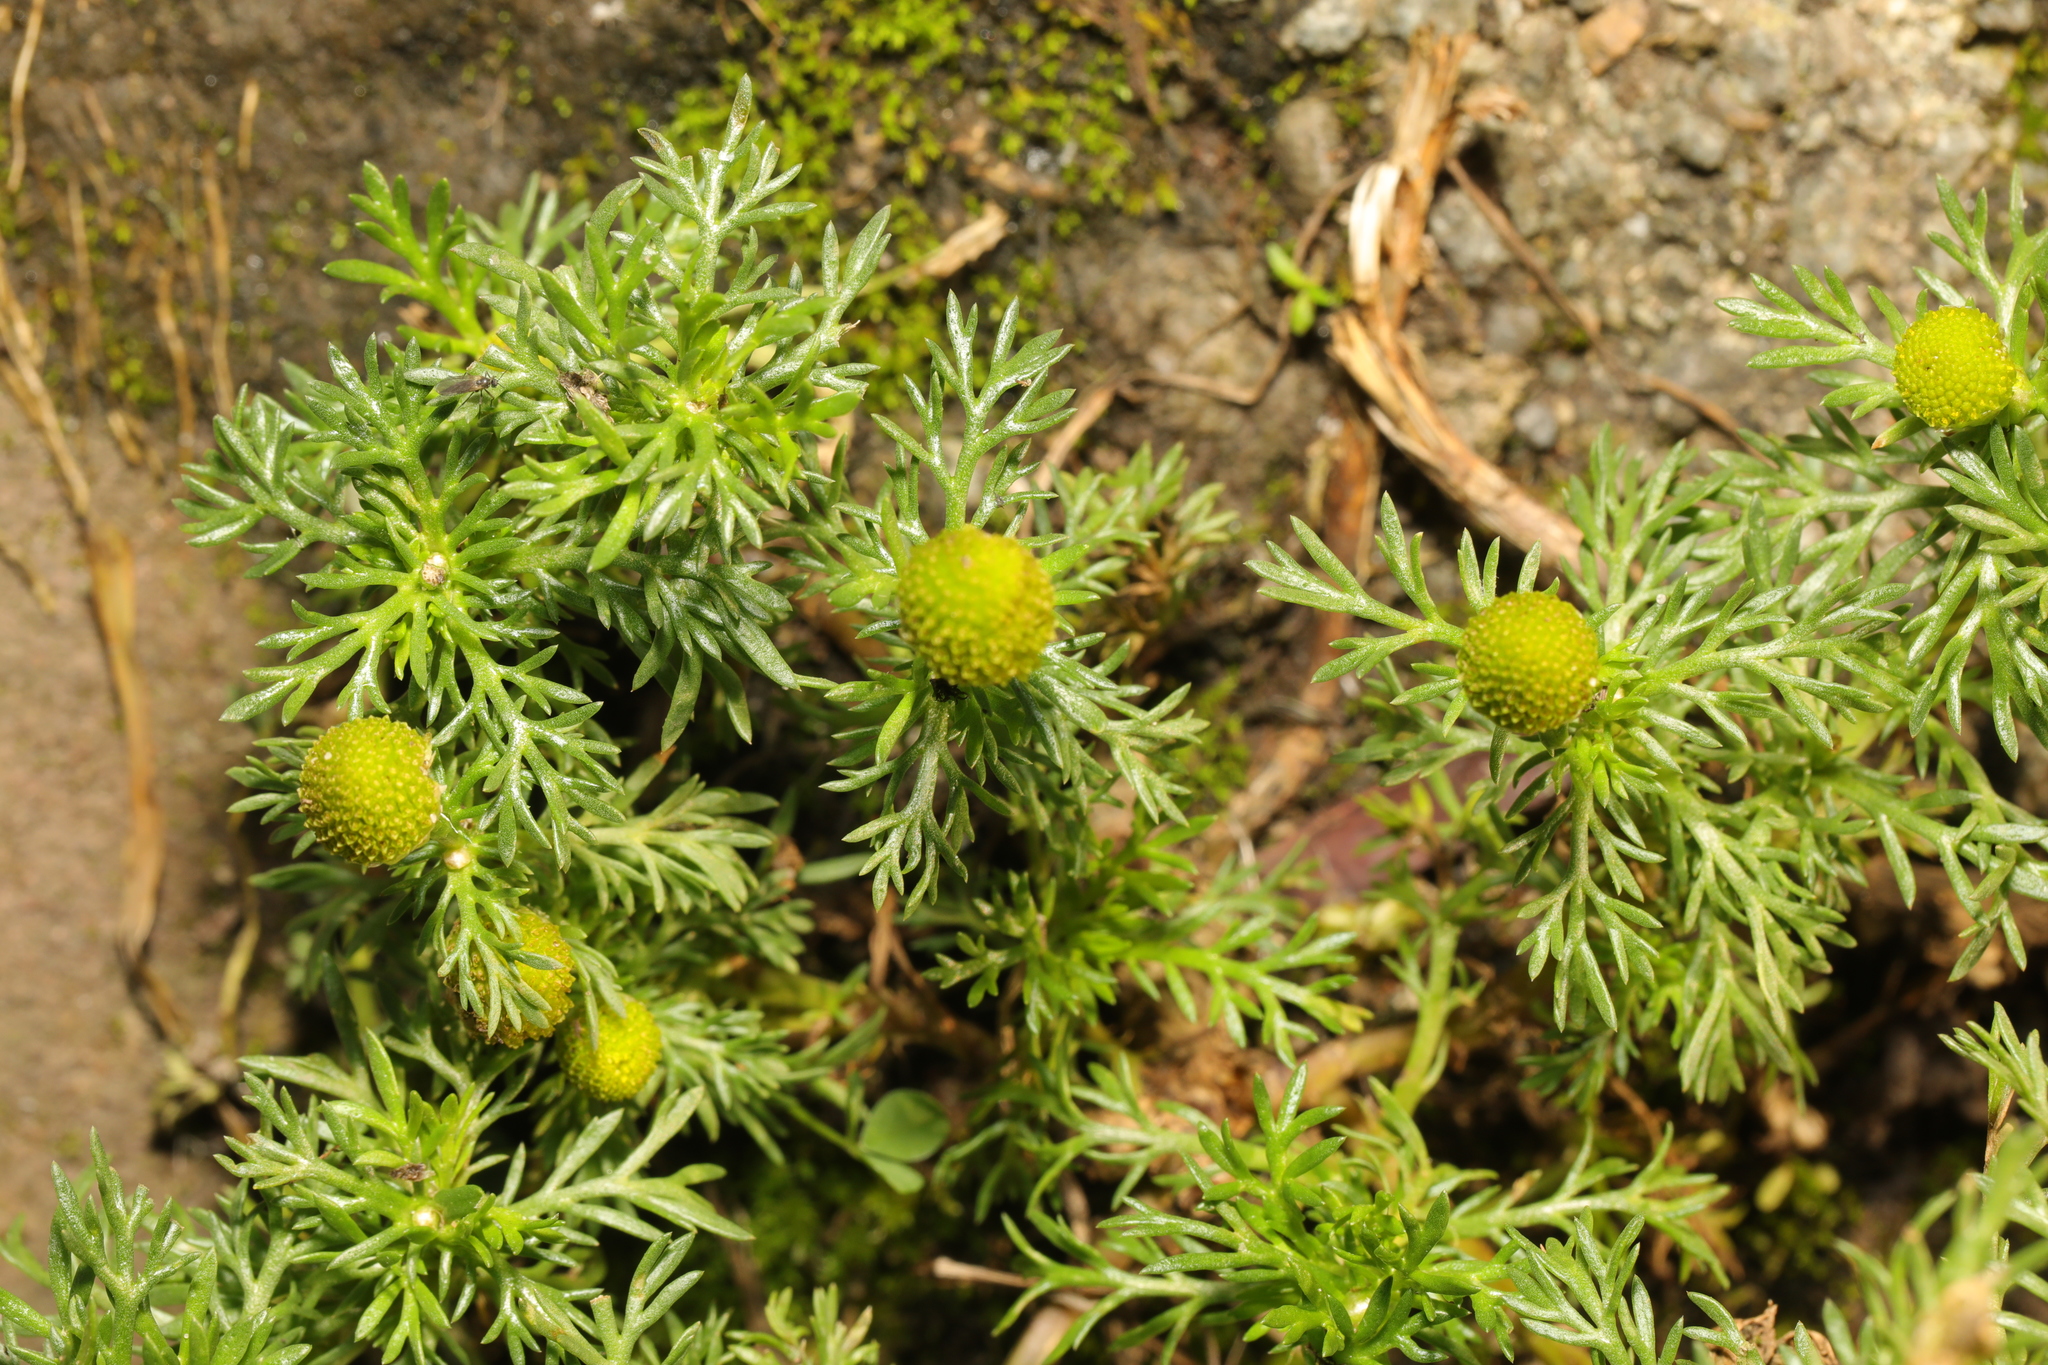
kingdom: Plantae
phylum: Tracheophyta
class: Magnoliopsida
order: Asterales
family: Asteraceae
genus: Matricaria
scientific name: Matricaria discoidea
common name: Disc mayweed
